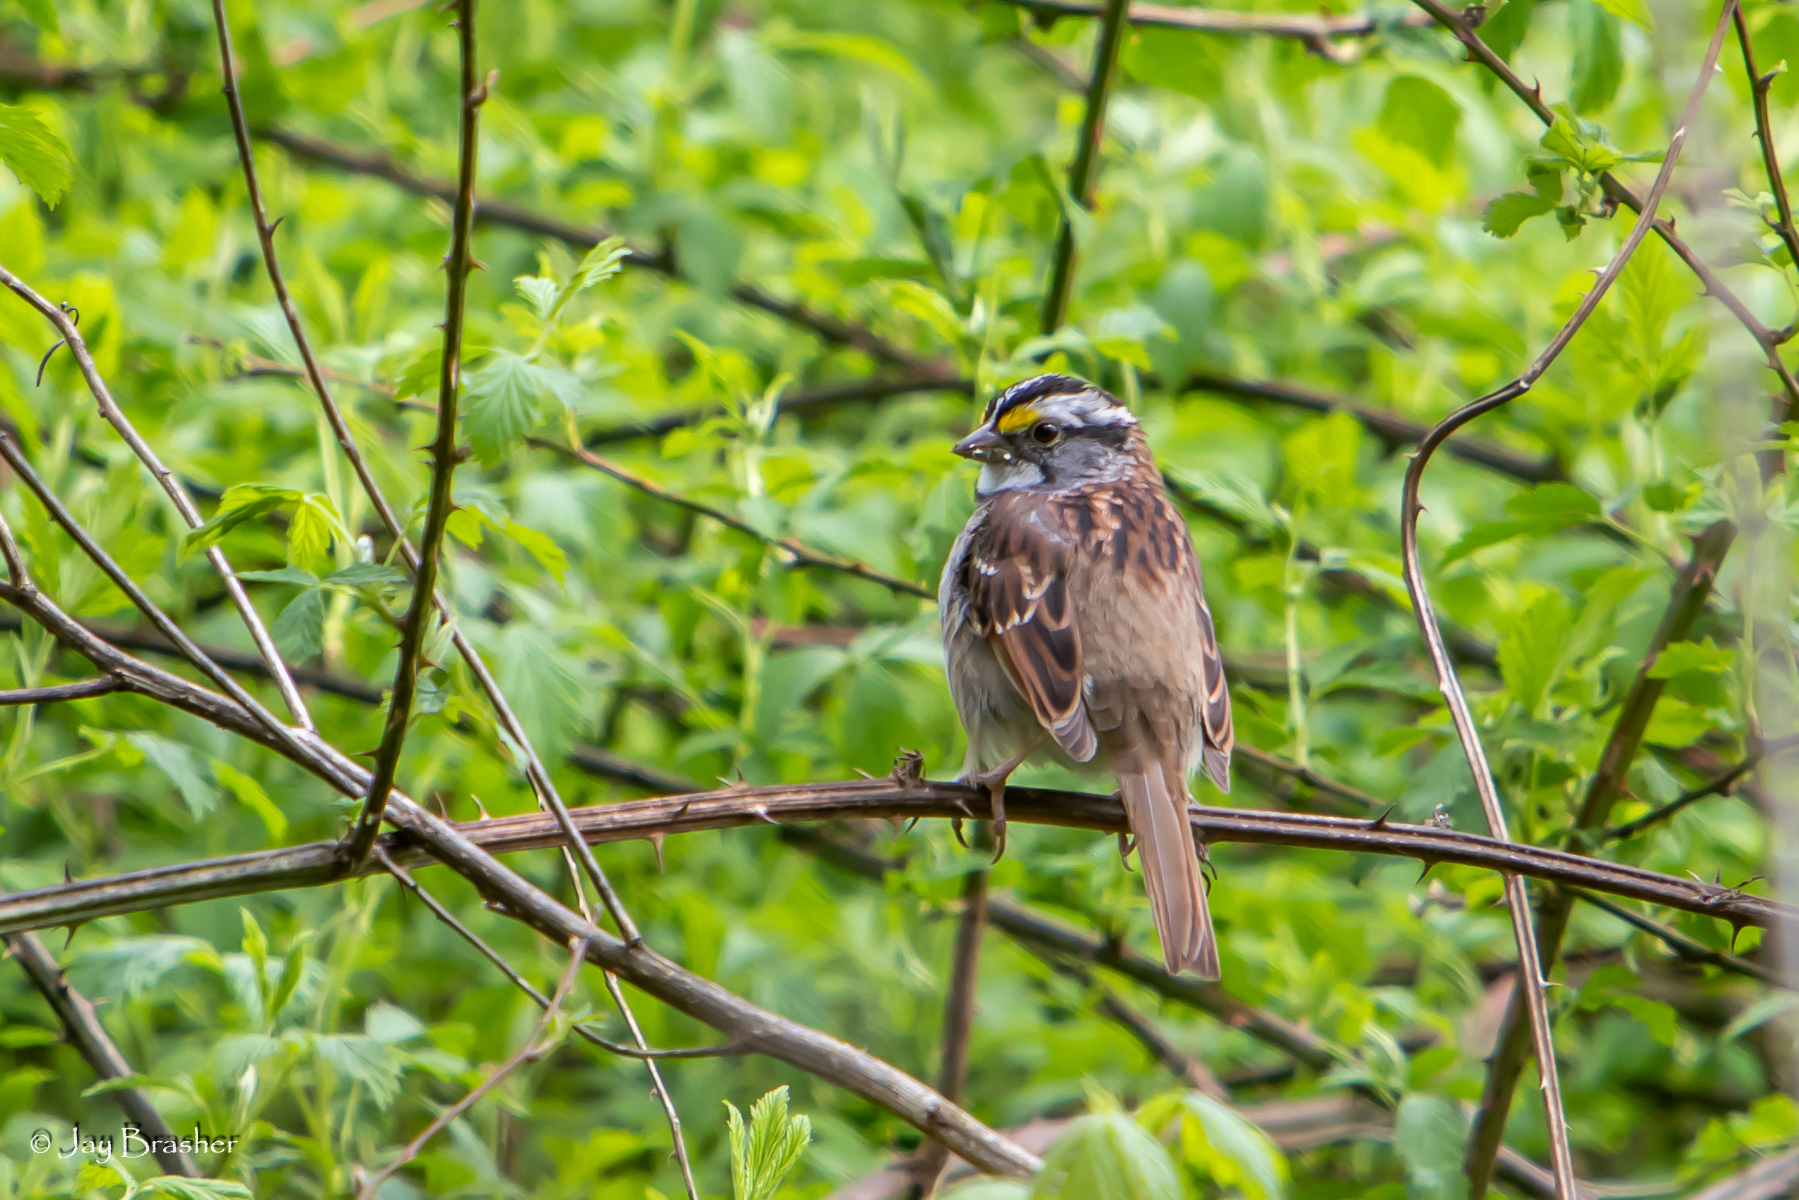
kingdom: Animalia
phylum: Chordata
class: Aves
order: Passeriformes
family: Passerellidae
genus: Zonotrichia
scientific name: Zonotrichia albicollis
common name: White-throated sparrow
